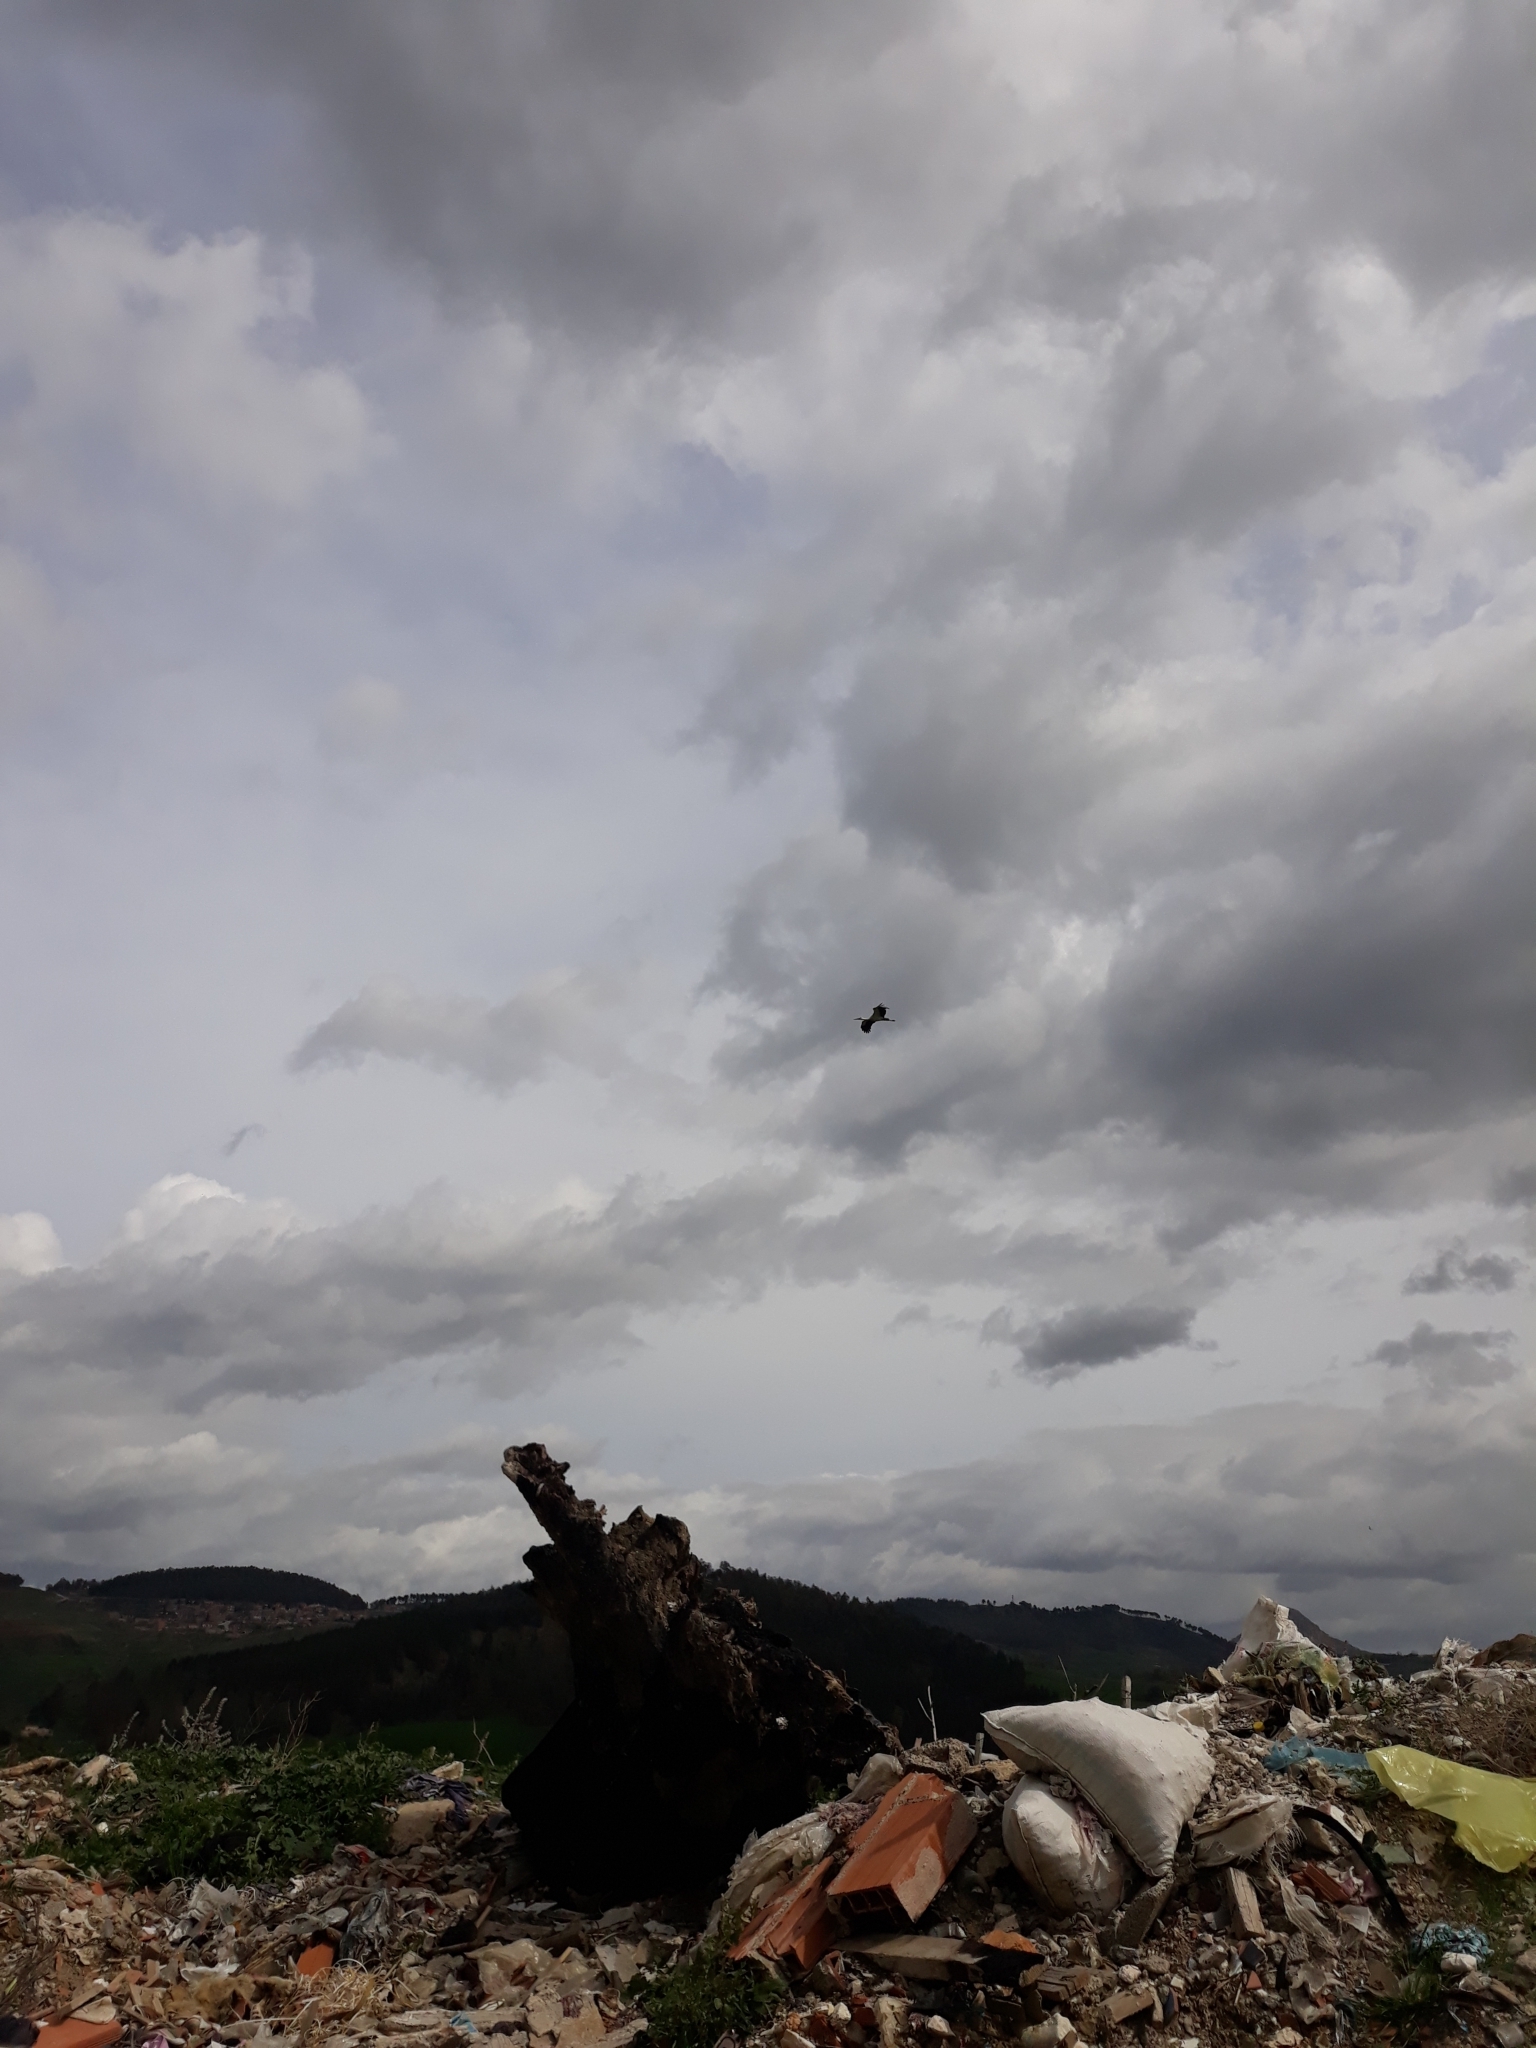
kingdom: Animalia
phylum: Chordata
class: Aves
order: Ciconiiformes
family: Ciconiidae
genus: Ciconia
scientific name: Ciconia ciconia
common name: White stork
